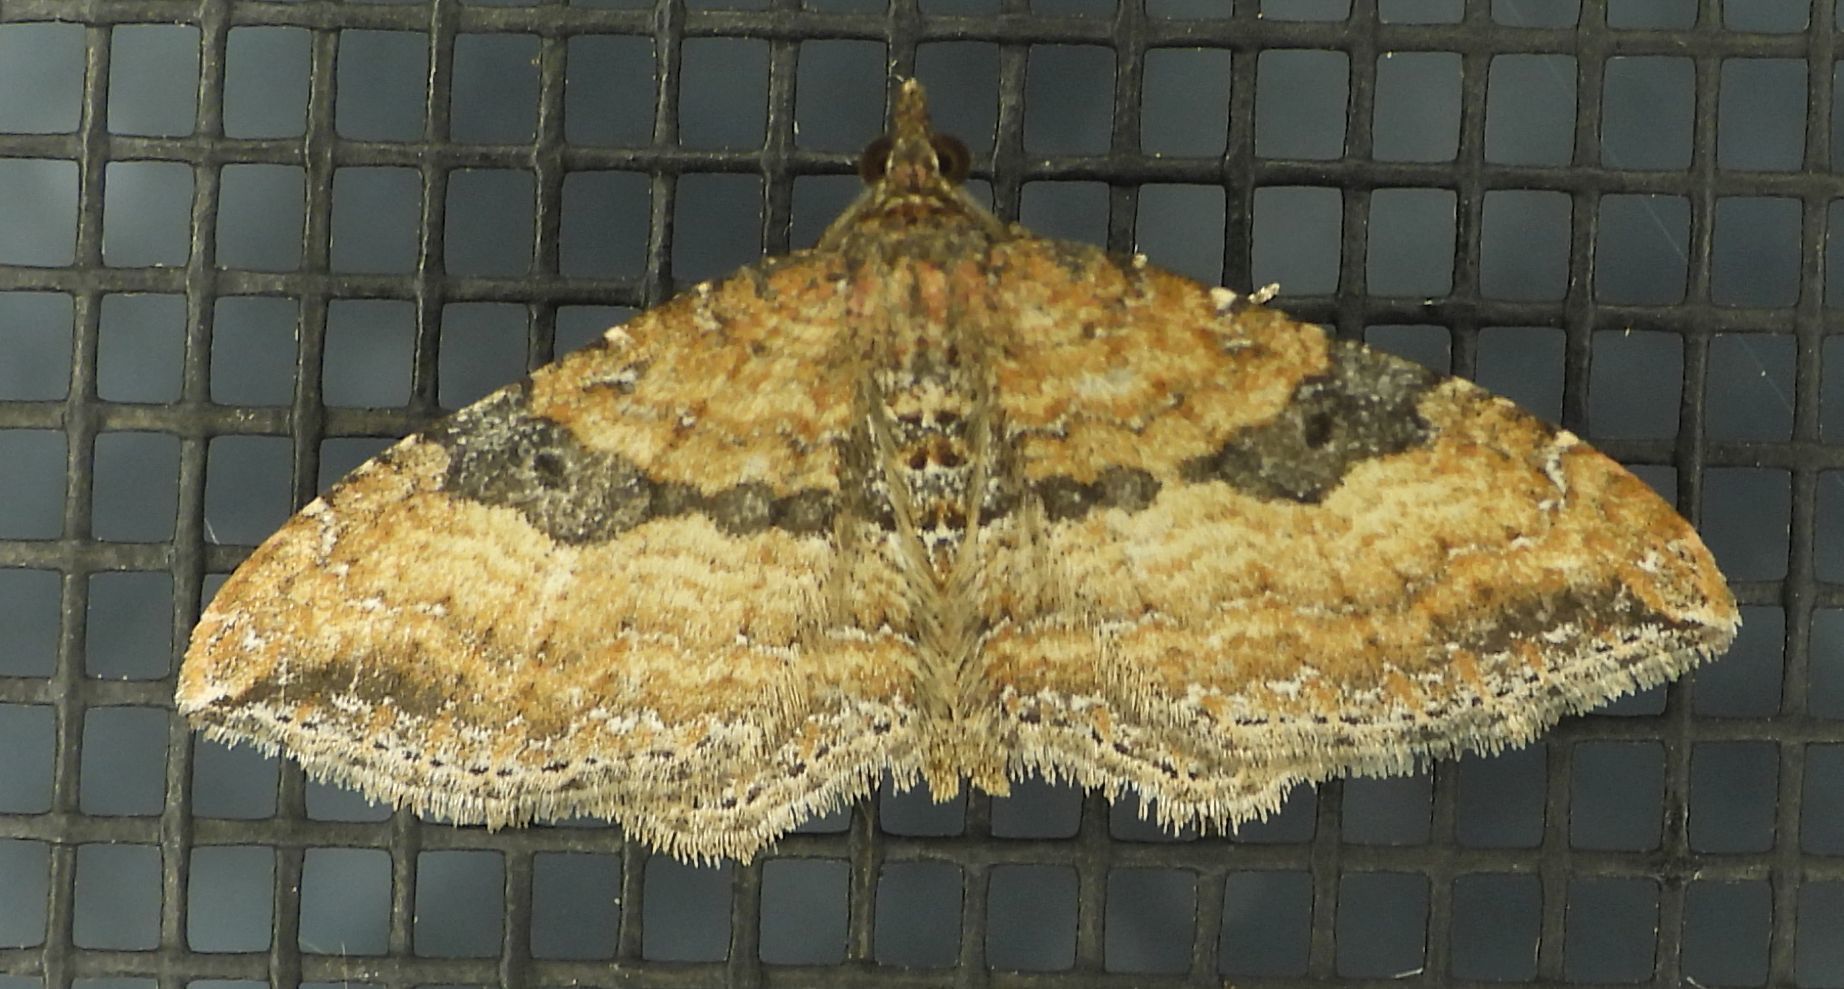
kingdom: Animalia
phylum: Arthropoda
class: Insecta
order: Lepidoptera
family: Geometridae
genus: Orthonama
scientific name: Orthonama obstipata
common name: The gem
